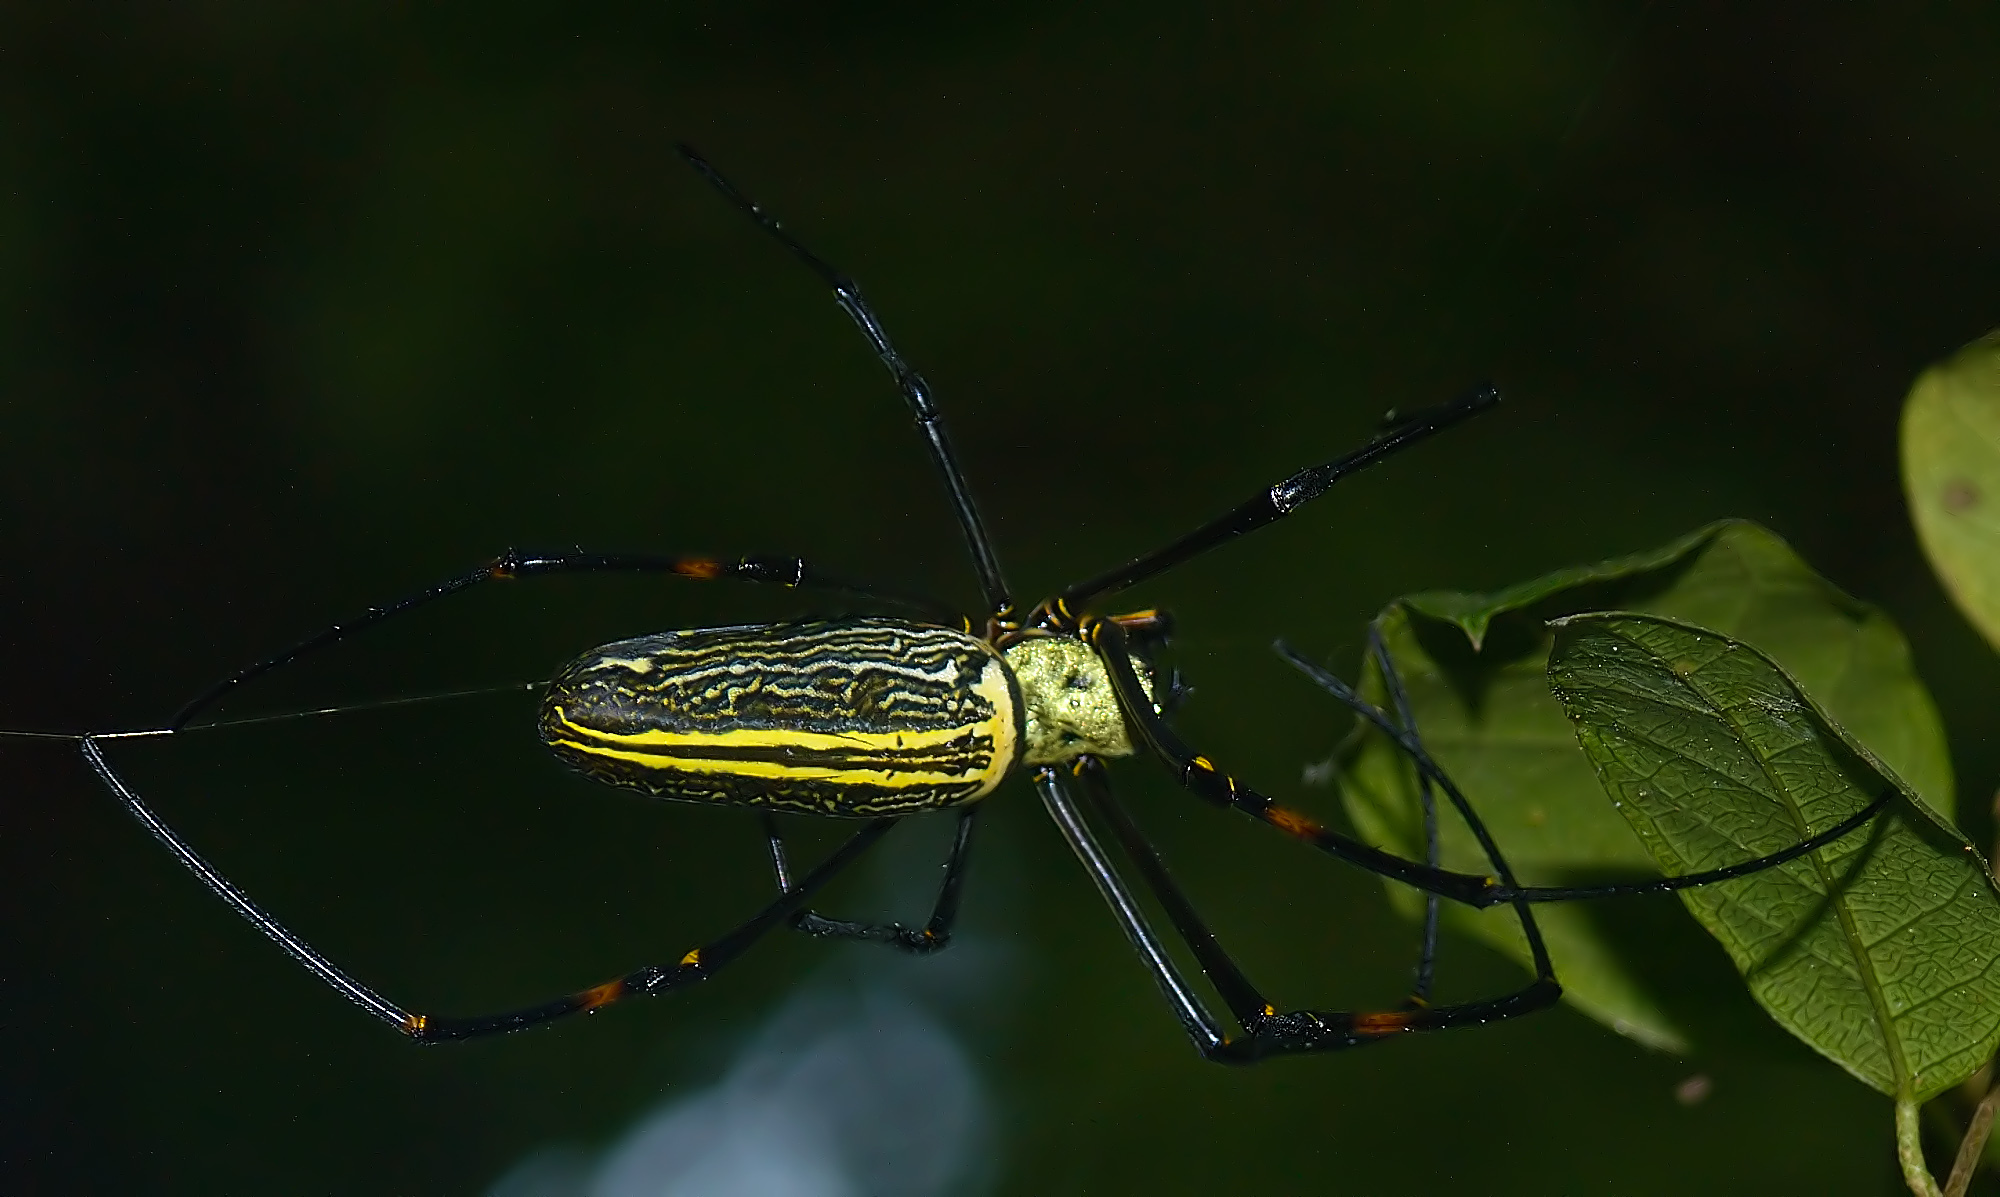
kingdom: Animalia
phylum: Arthropoda
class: Arachnida
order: Araneae
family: Araneidae
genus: Nephila
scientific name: Nephila pilipes
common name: Giant golden orb weaver
